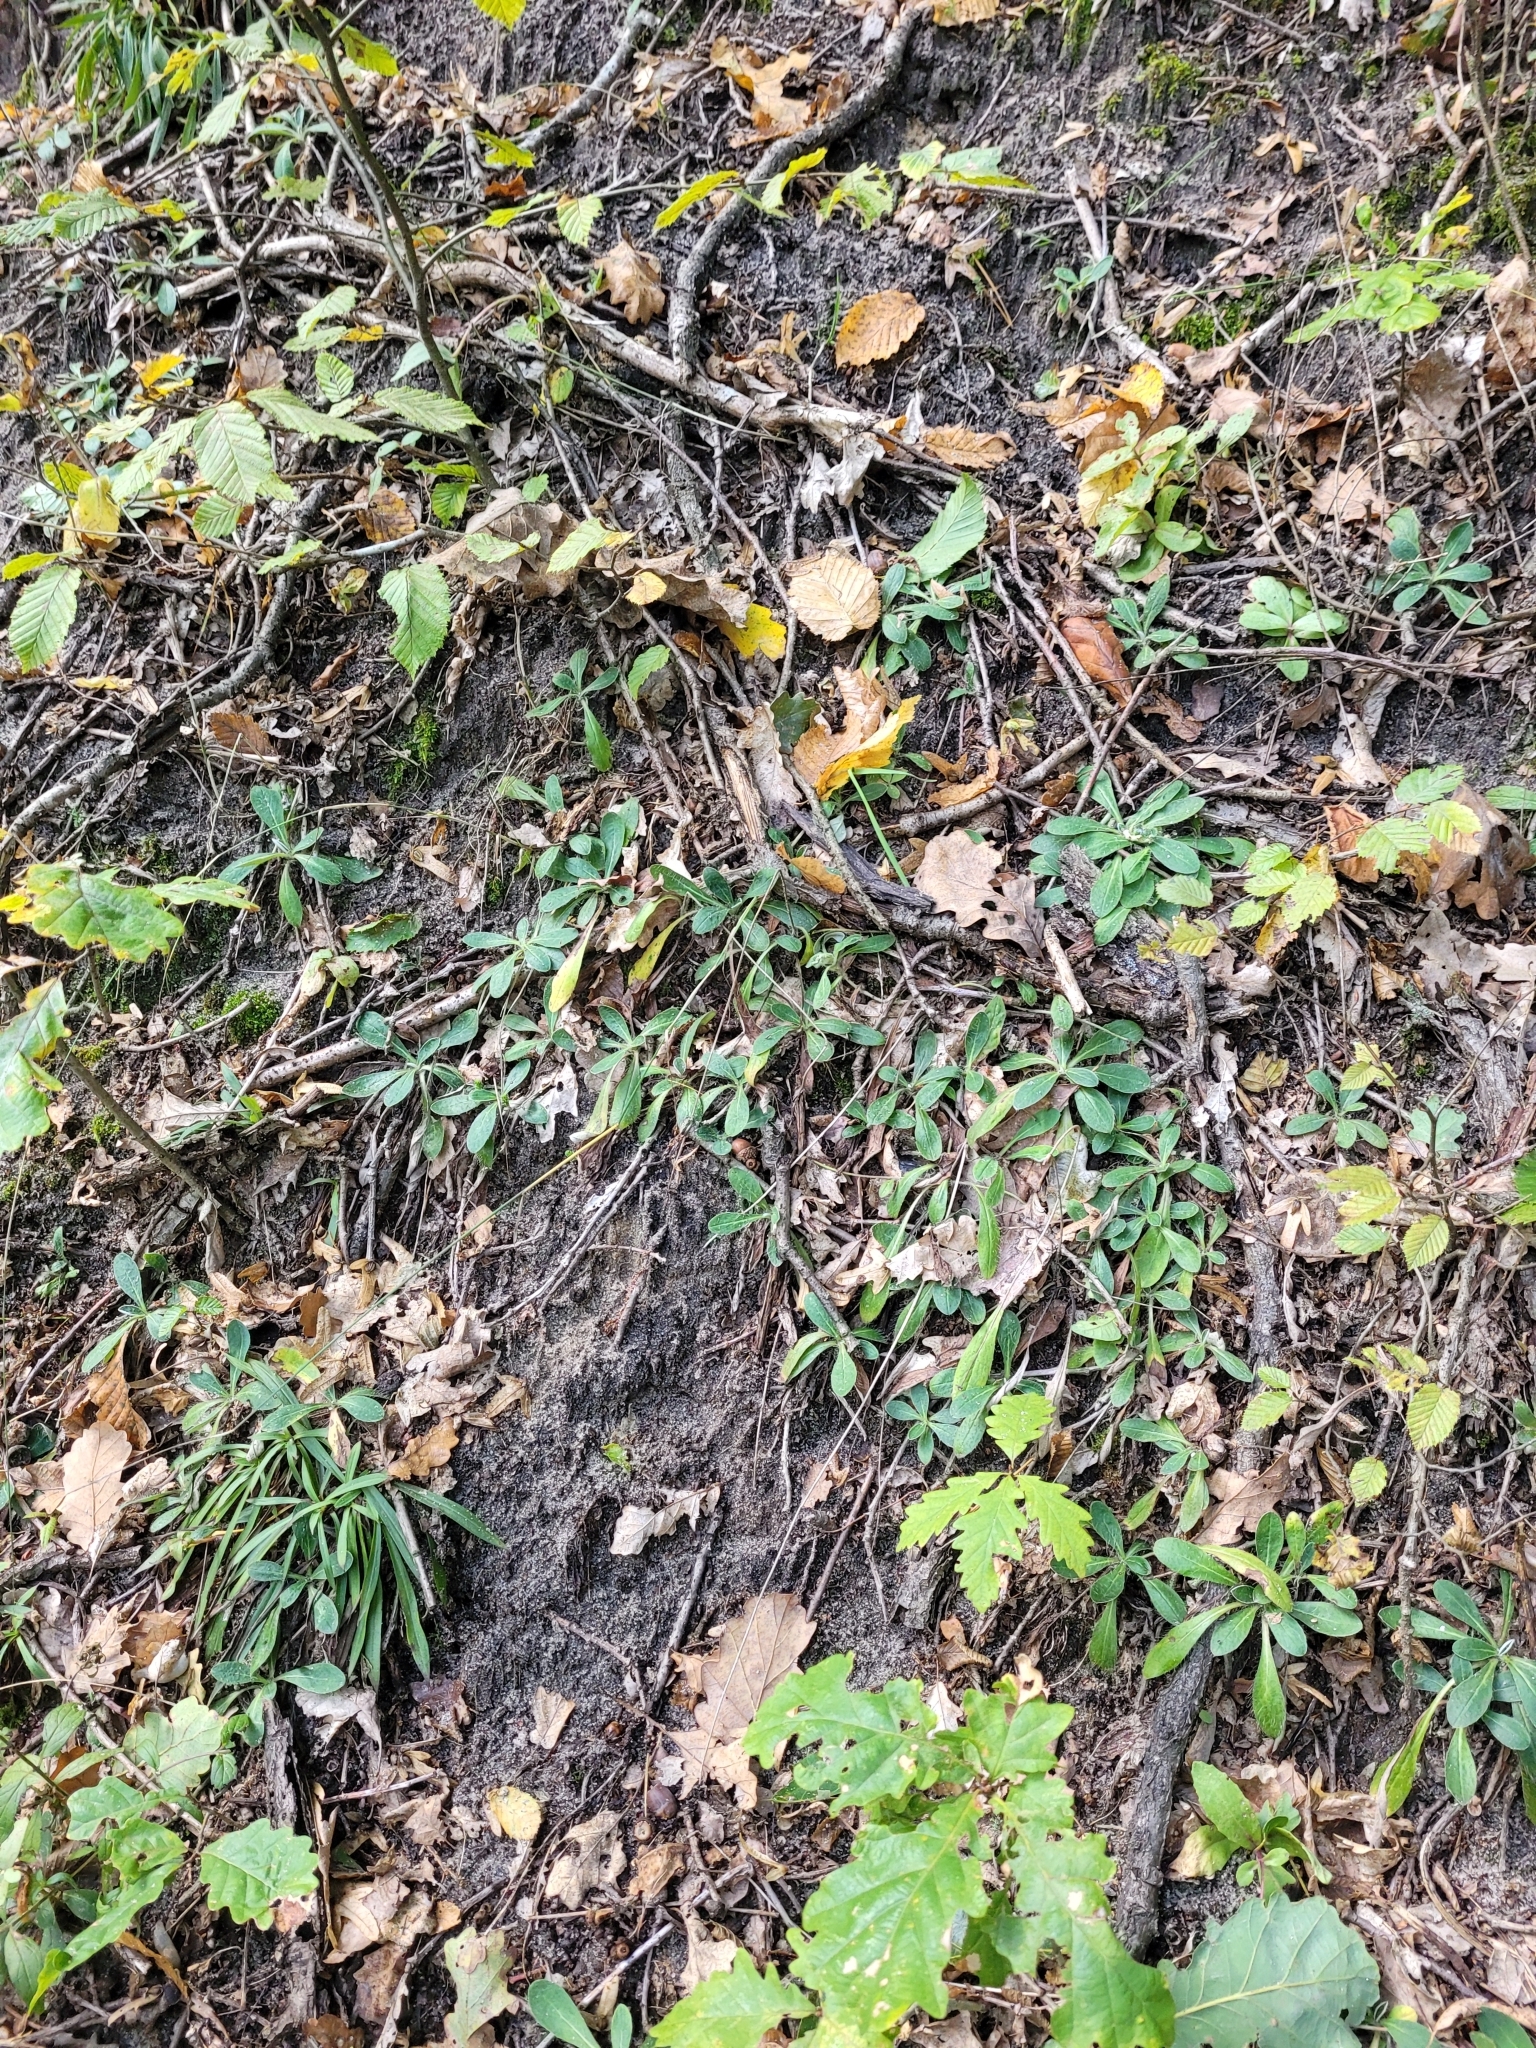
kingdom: Plantae
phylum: Tracheophyta
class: Magnoliopsida
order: Asterales
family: Asteraceae
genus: Pilosella
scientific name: Pilosella officinarum
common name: Mouse-ear hawkweed
